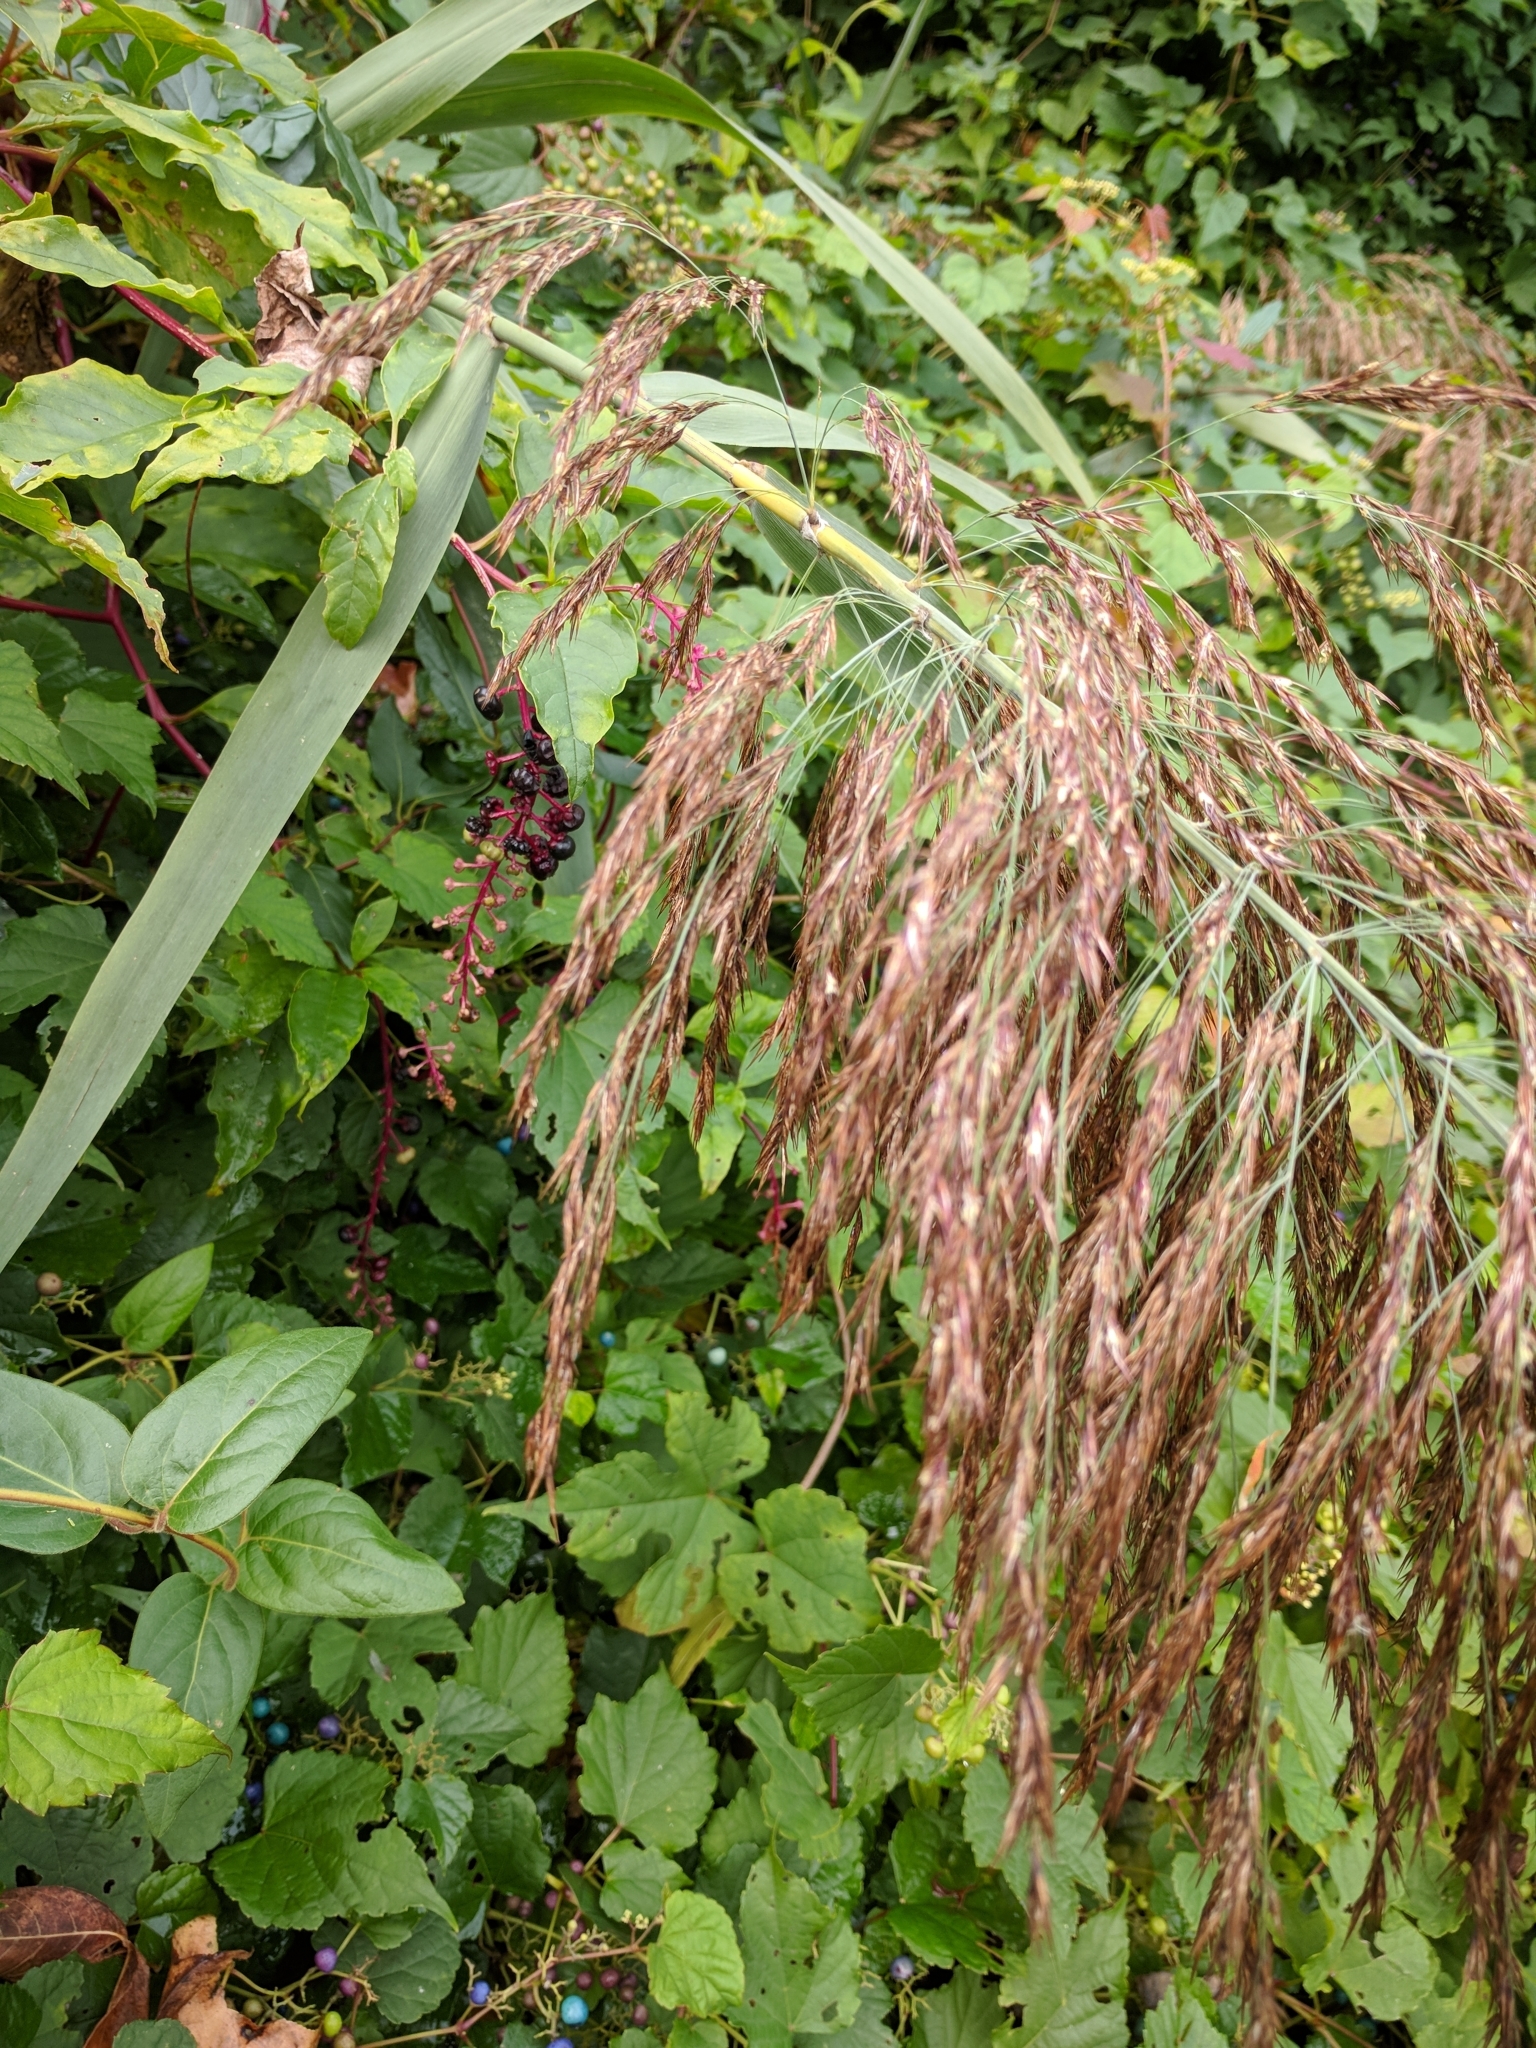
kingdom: Plantae
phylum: Tracheophyta
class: Liliopsida
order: Poales
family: Poaceae
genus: Phragmites
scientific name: Phragmites australis
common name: Common reed
